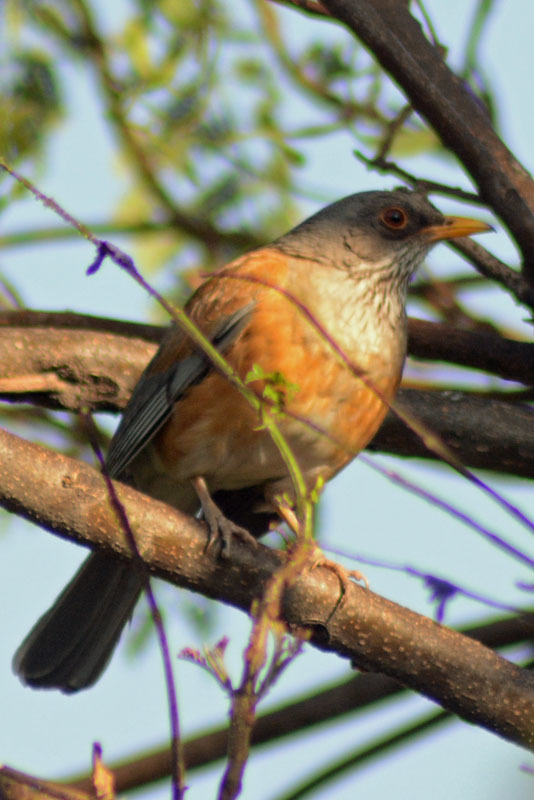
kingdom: Animalia
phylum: Chordata
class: Aves
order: Passeriformes
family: Turdidae
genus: Turdus
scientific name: Turdus rufopalliatus
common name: Rufous-backed robin
